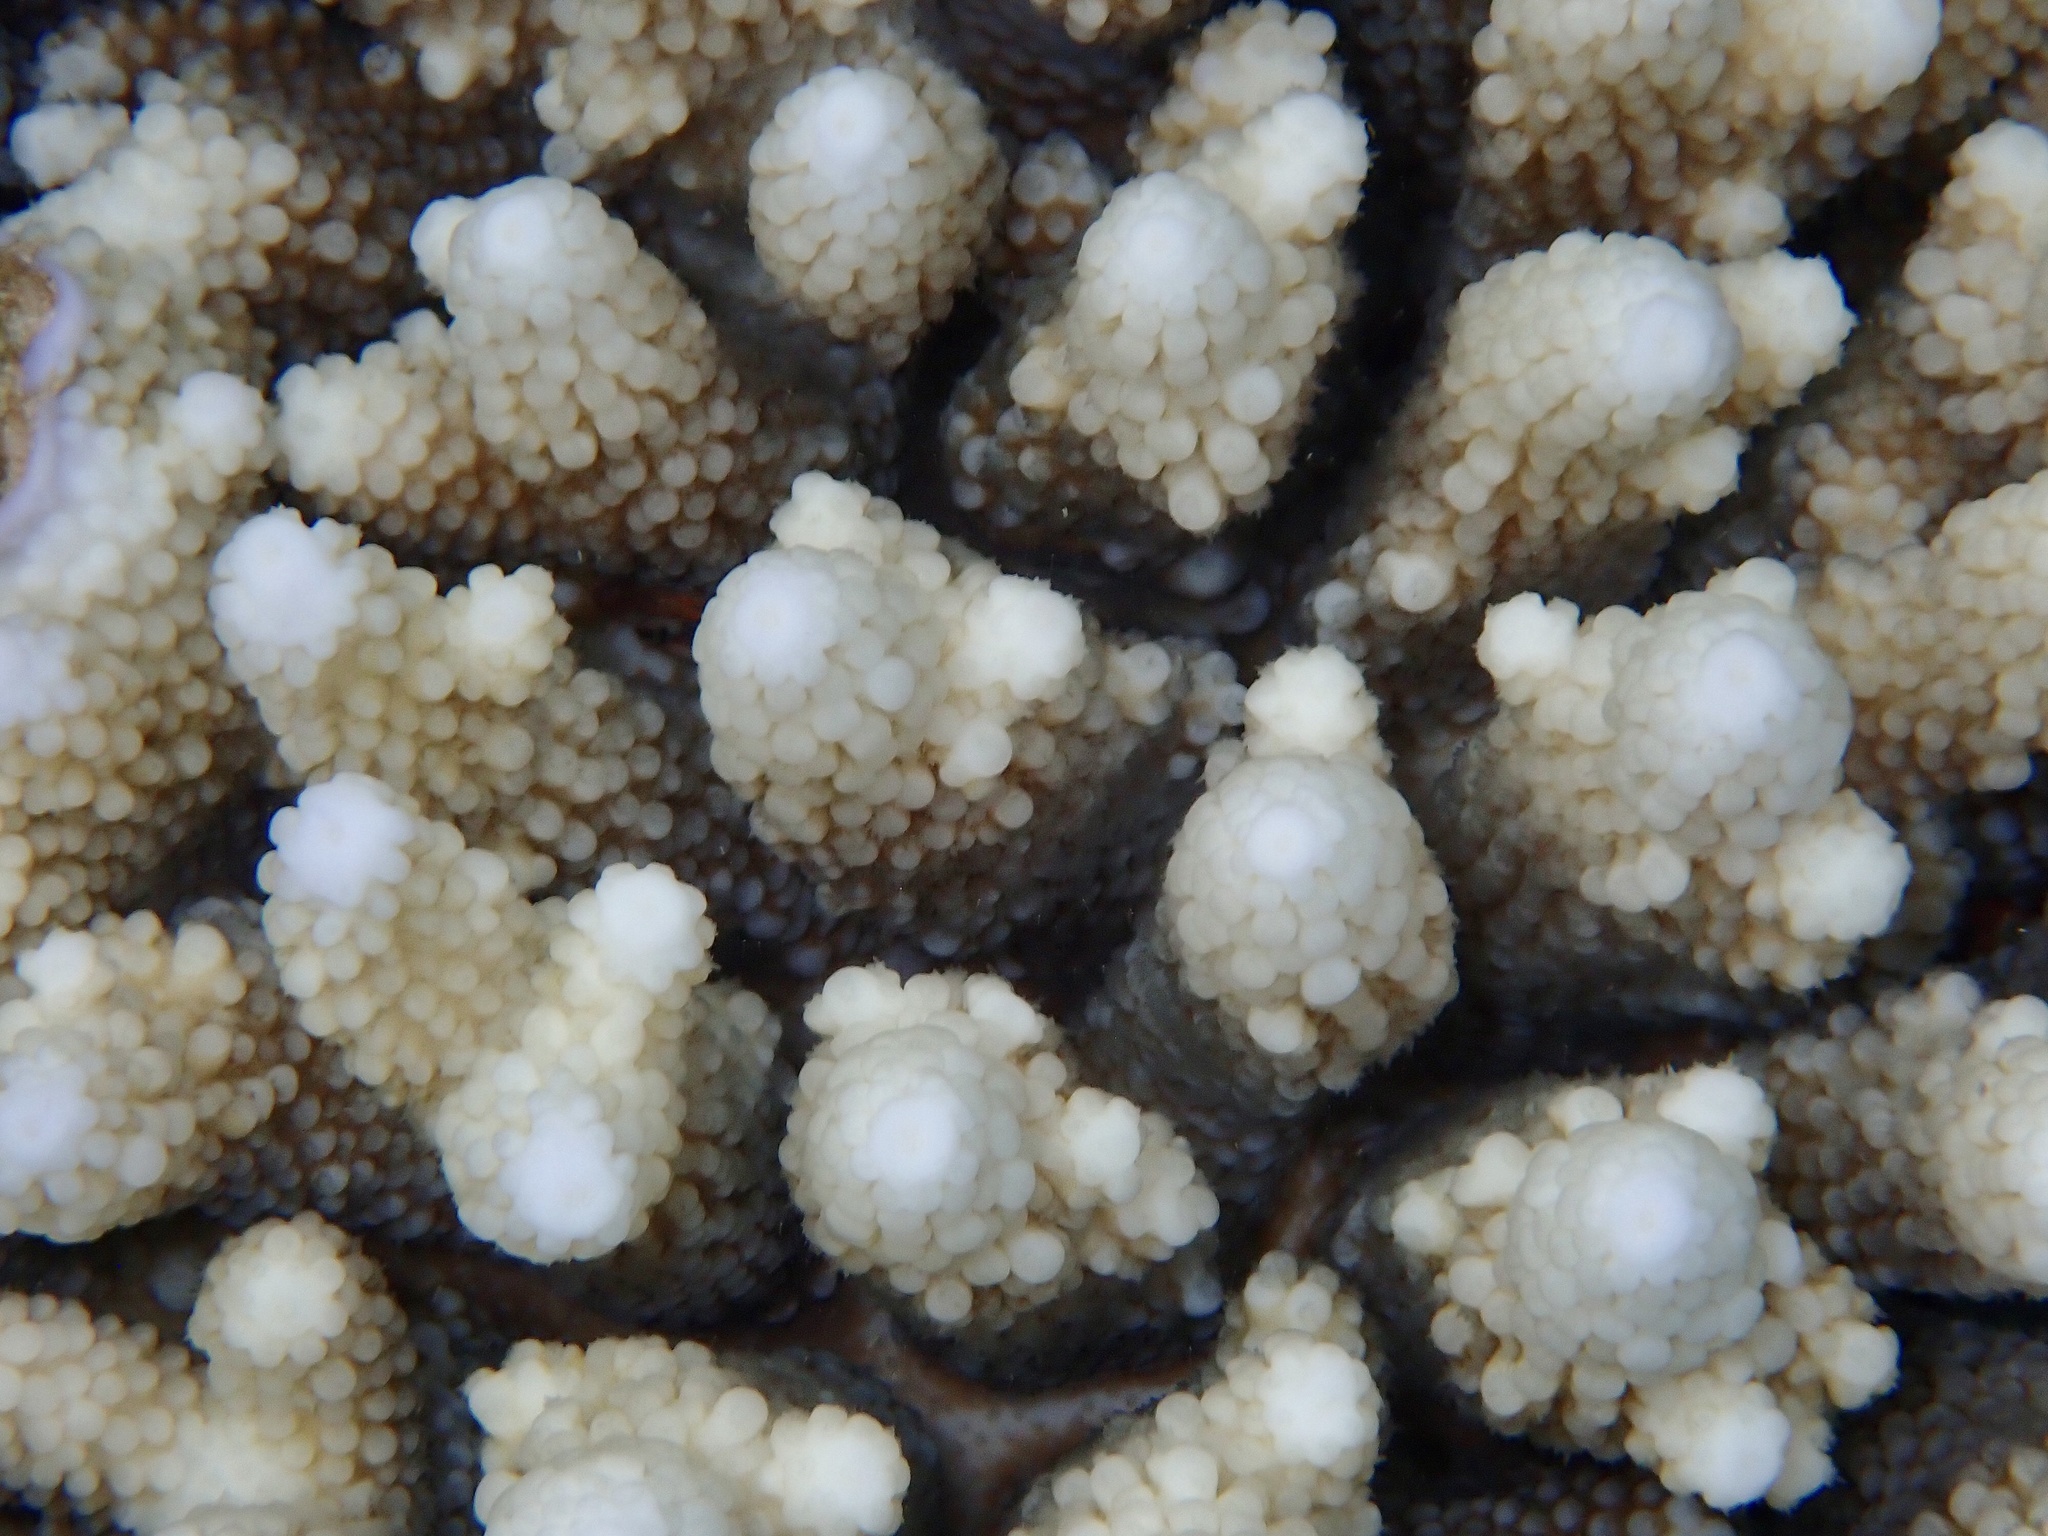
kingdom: Animalia
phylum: Cnidaria
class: Anthozoa
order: Scleractinia
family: Acroporidae
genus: Acropora
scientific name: Acropora gemmifera
